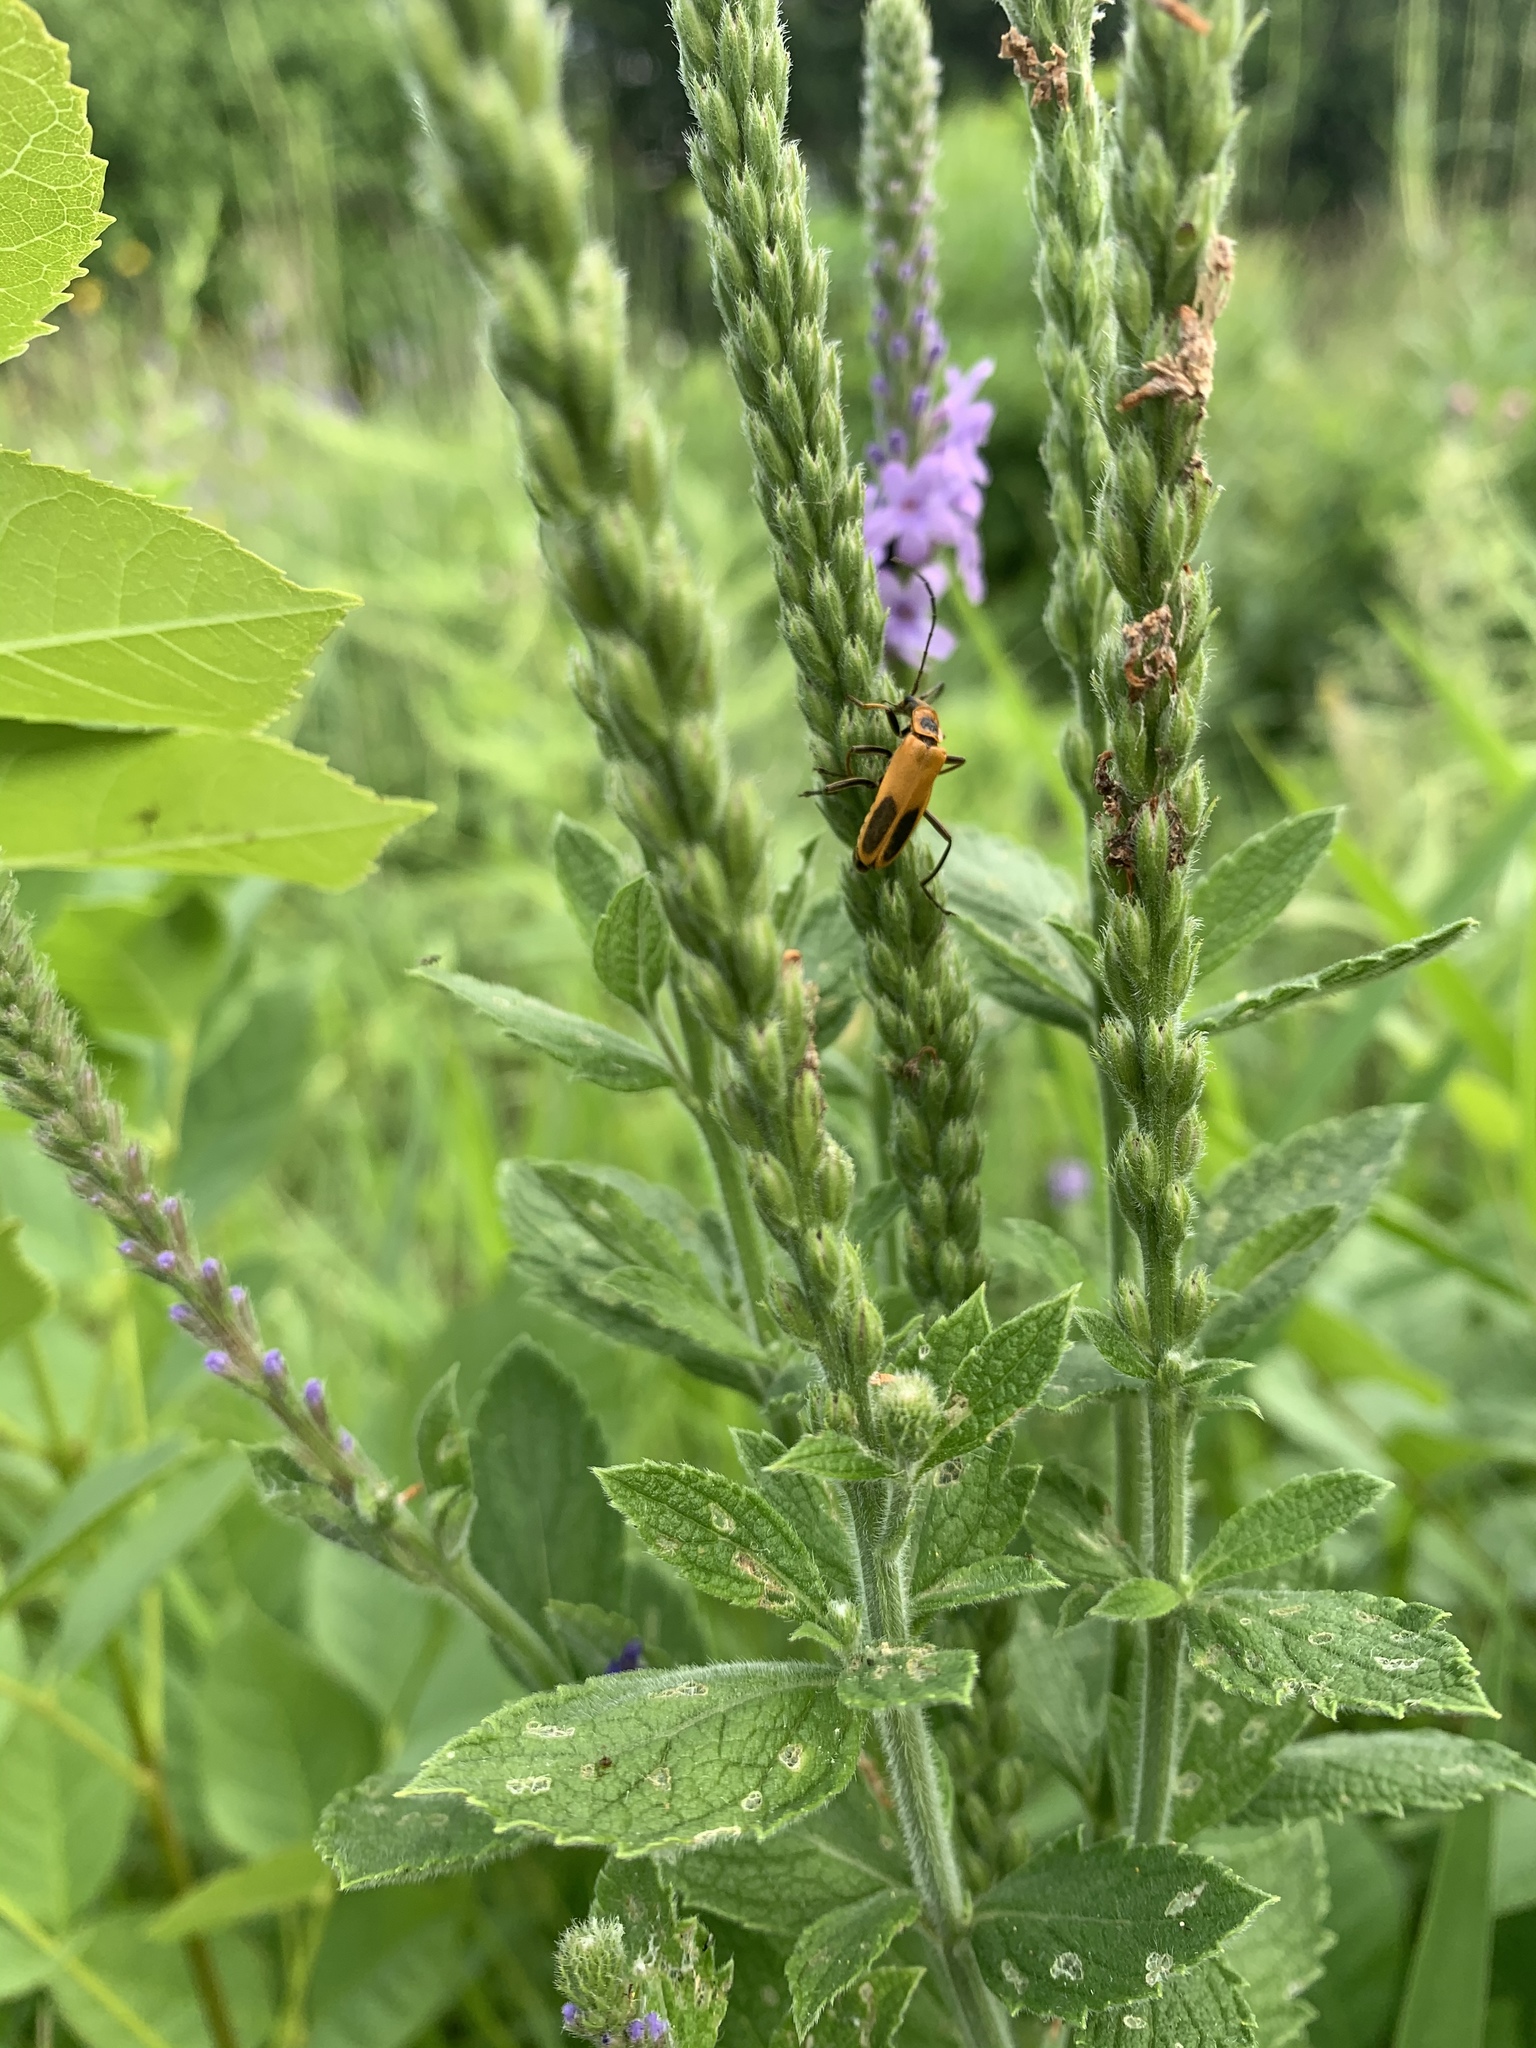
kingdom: Animalia
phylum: Arthropoda
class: Insecta
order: Coleoptera
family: Cantharidae
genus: Chauliognathus
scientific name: Chauliognathus pensylvanicus
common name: Goldenrod soldier beetle
